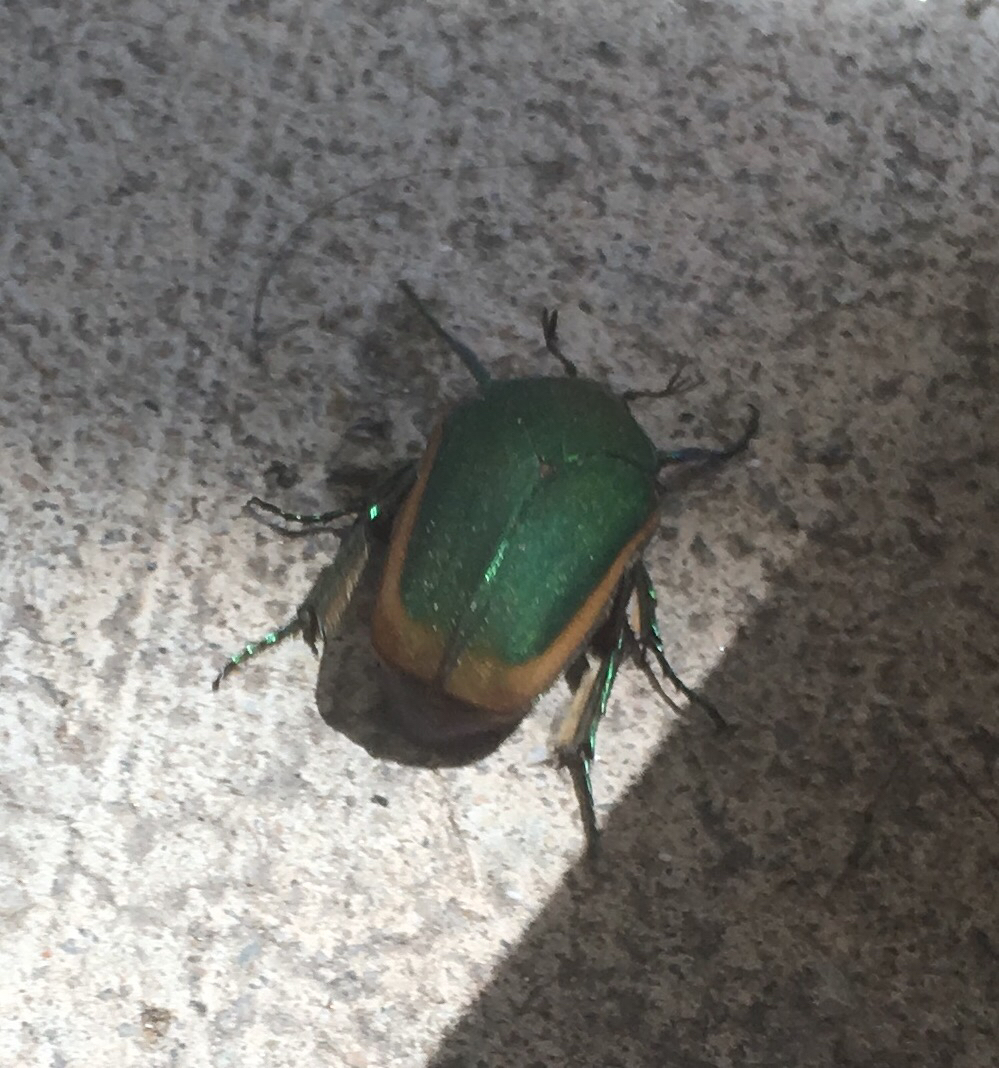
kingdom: Animalia
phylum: Arthropoda
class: Insecta
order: Coleoptera
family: Scarabaeidae
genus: Cotinis
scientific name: Cotinis mutabilis
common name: Figeater beetle
